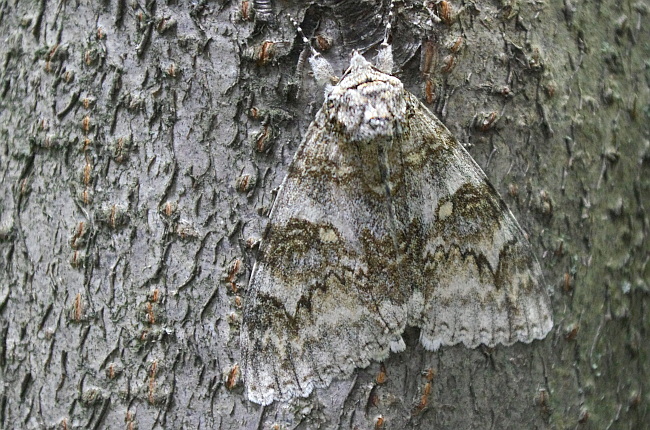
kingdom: Animalia
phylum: Arthropoda
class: Insecta
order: Lepidoptera
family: Erebidae
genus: Catocala
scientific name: Catocala fraxini
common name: Clifden nonpareil
